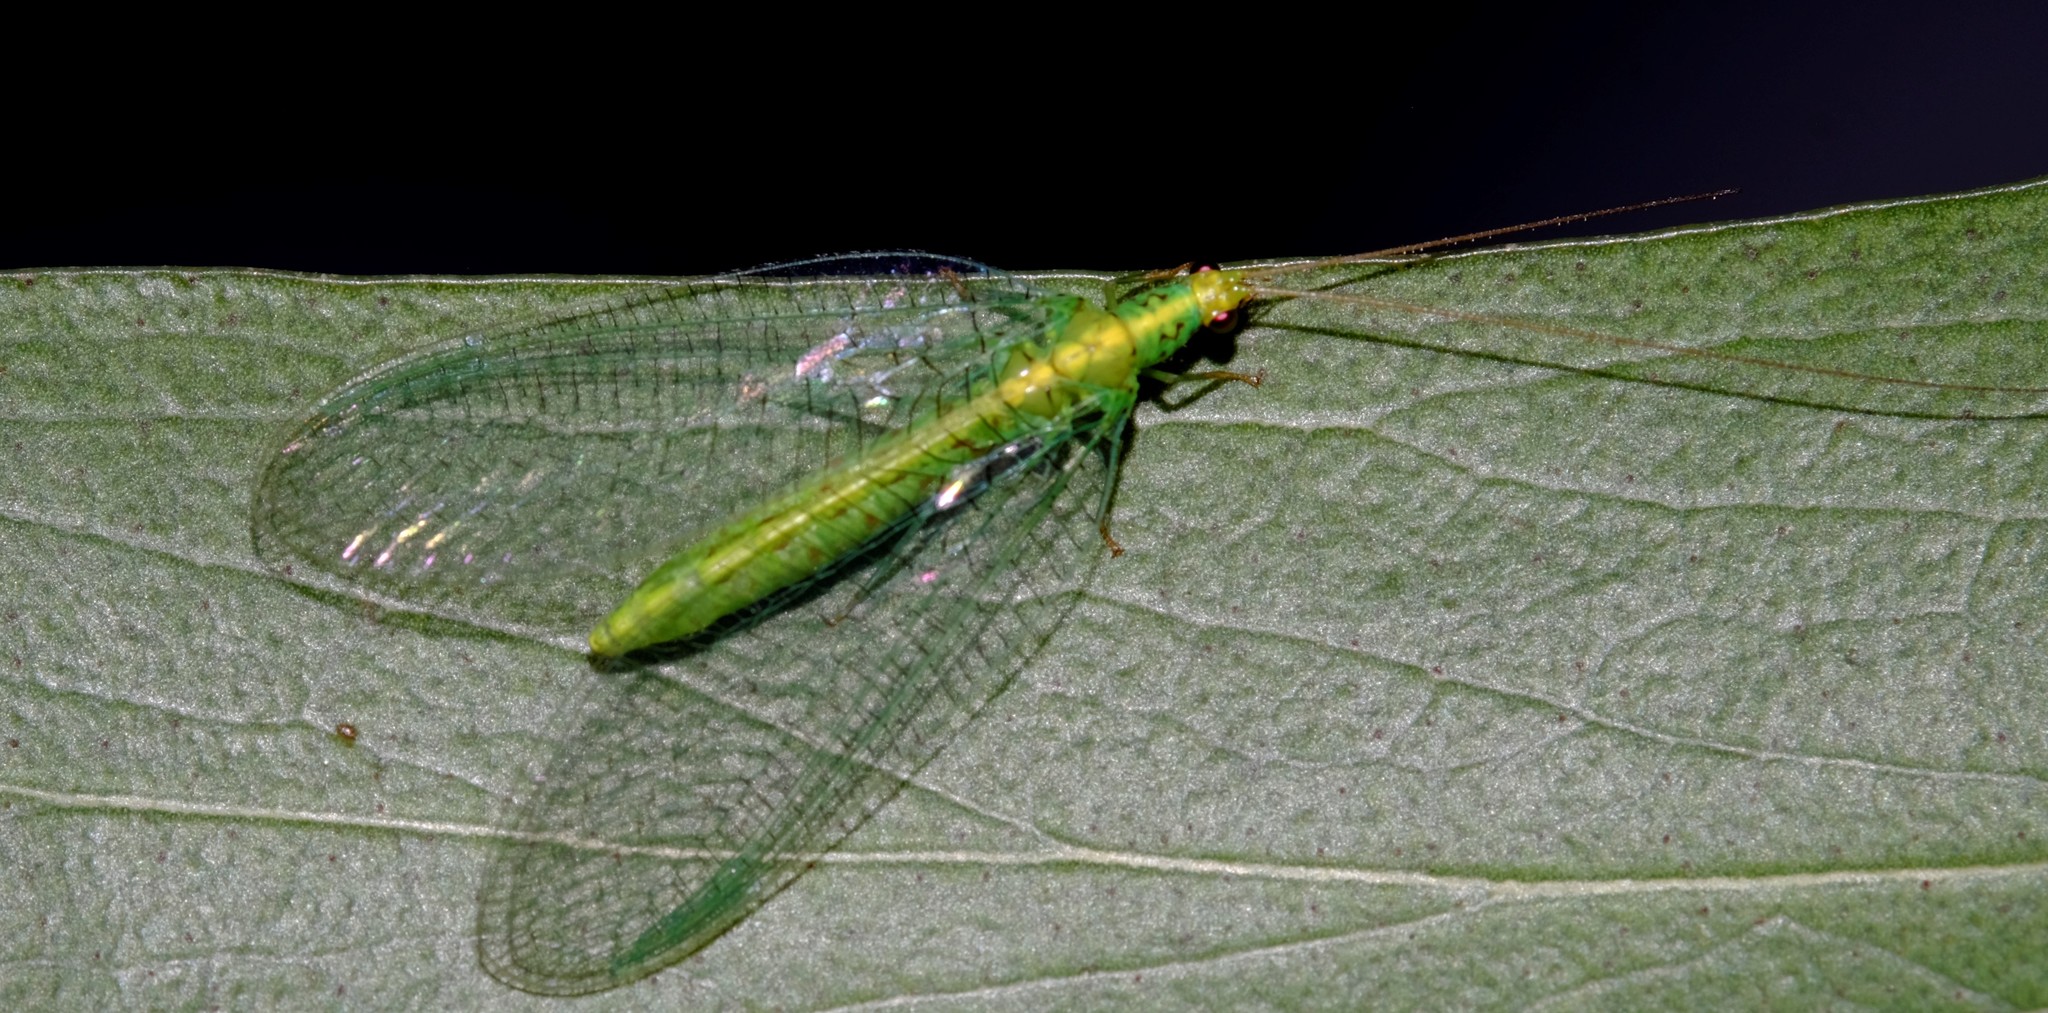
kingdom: Animalia
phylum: Arthropoda
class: Insecta
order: Neuroptera
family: Chrysopidae
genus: Pseudomallada
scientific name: Pseudomallada edwardsi
